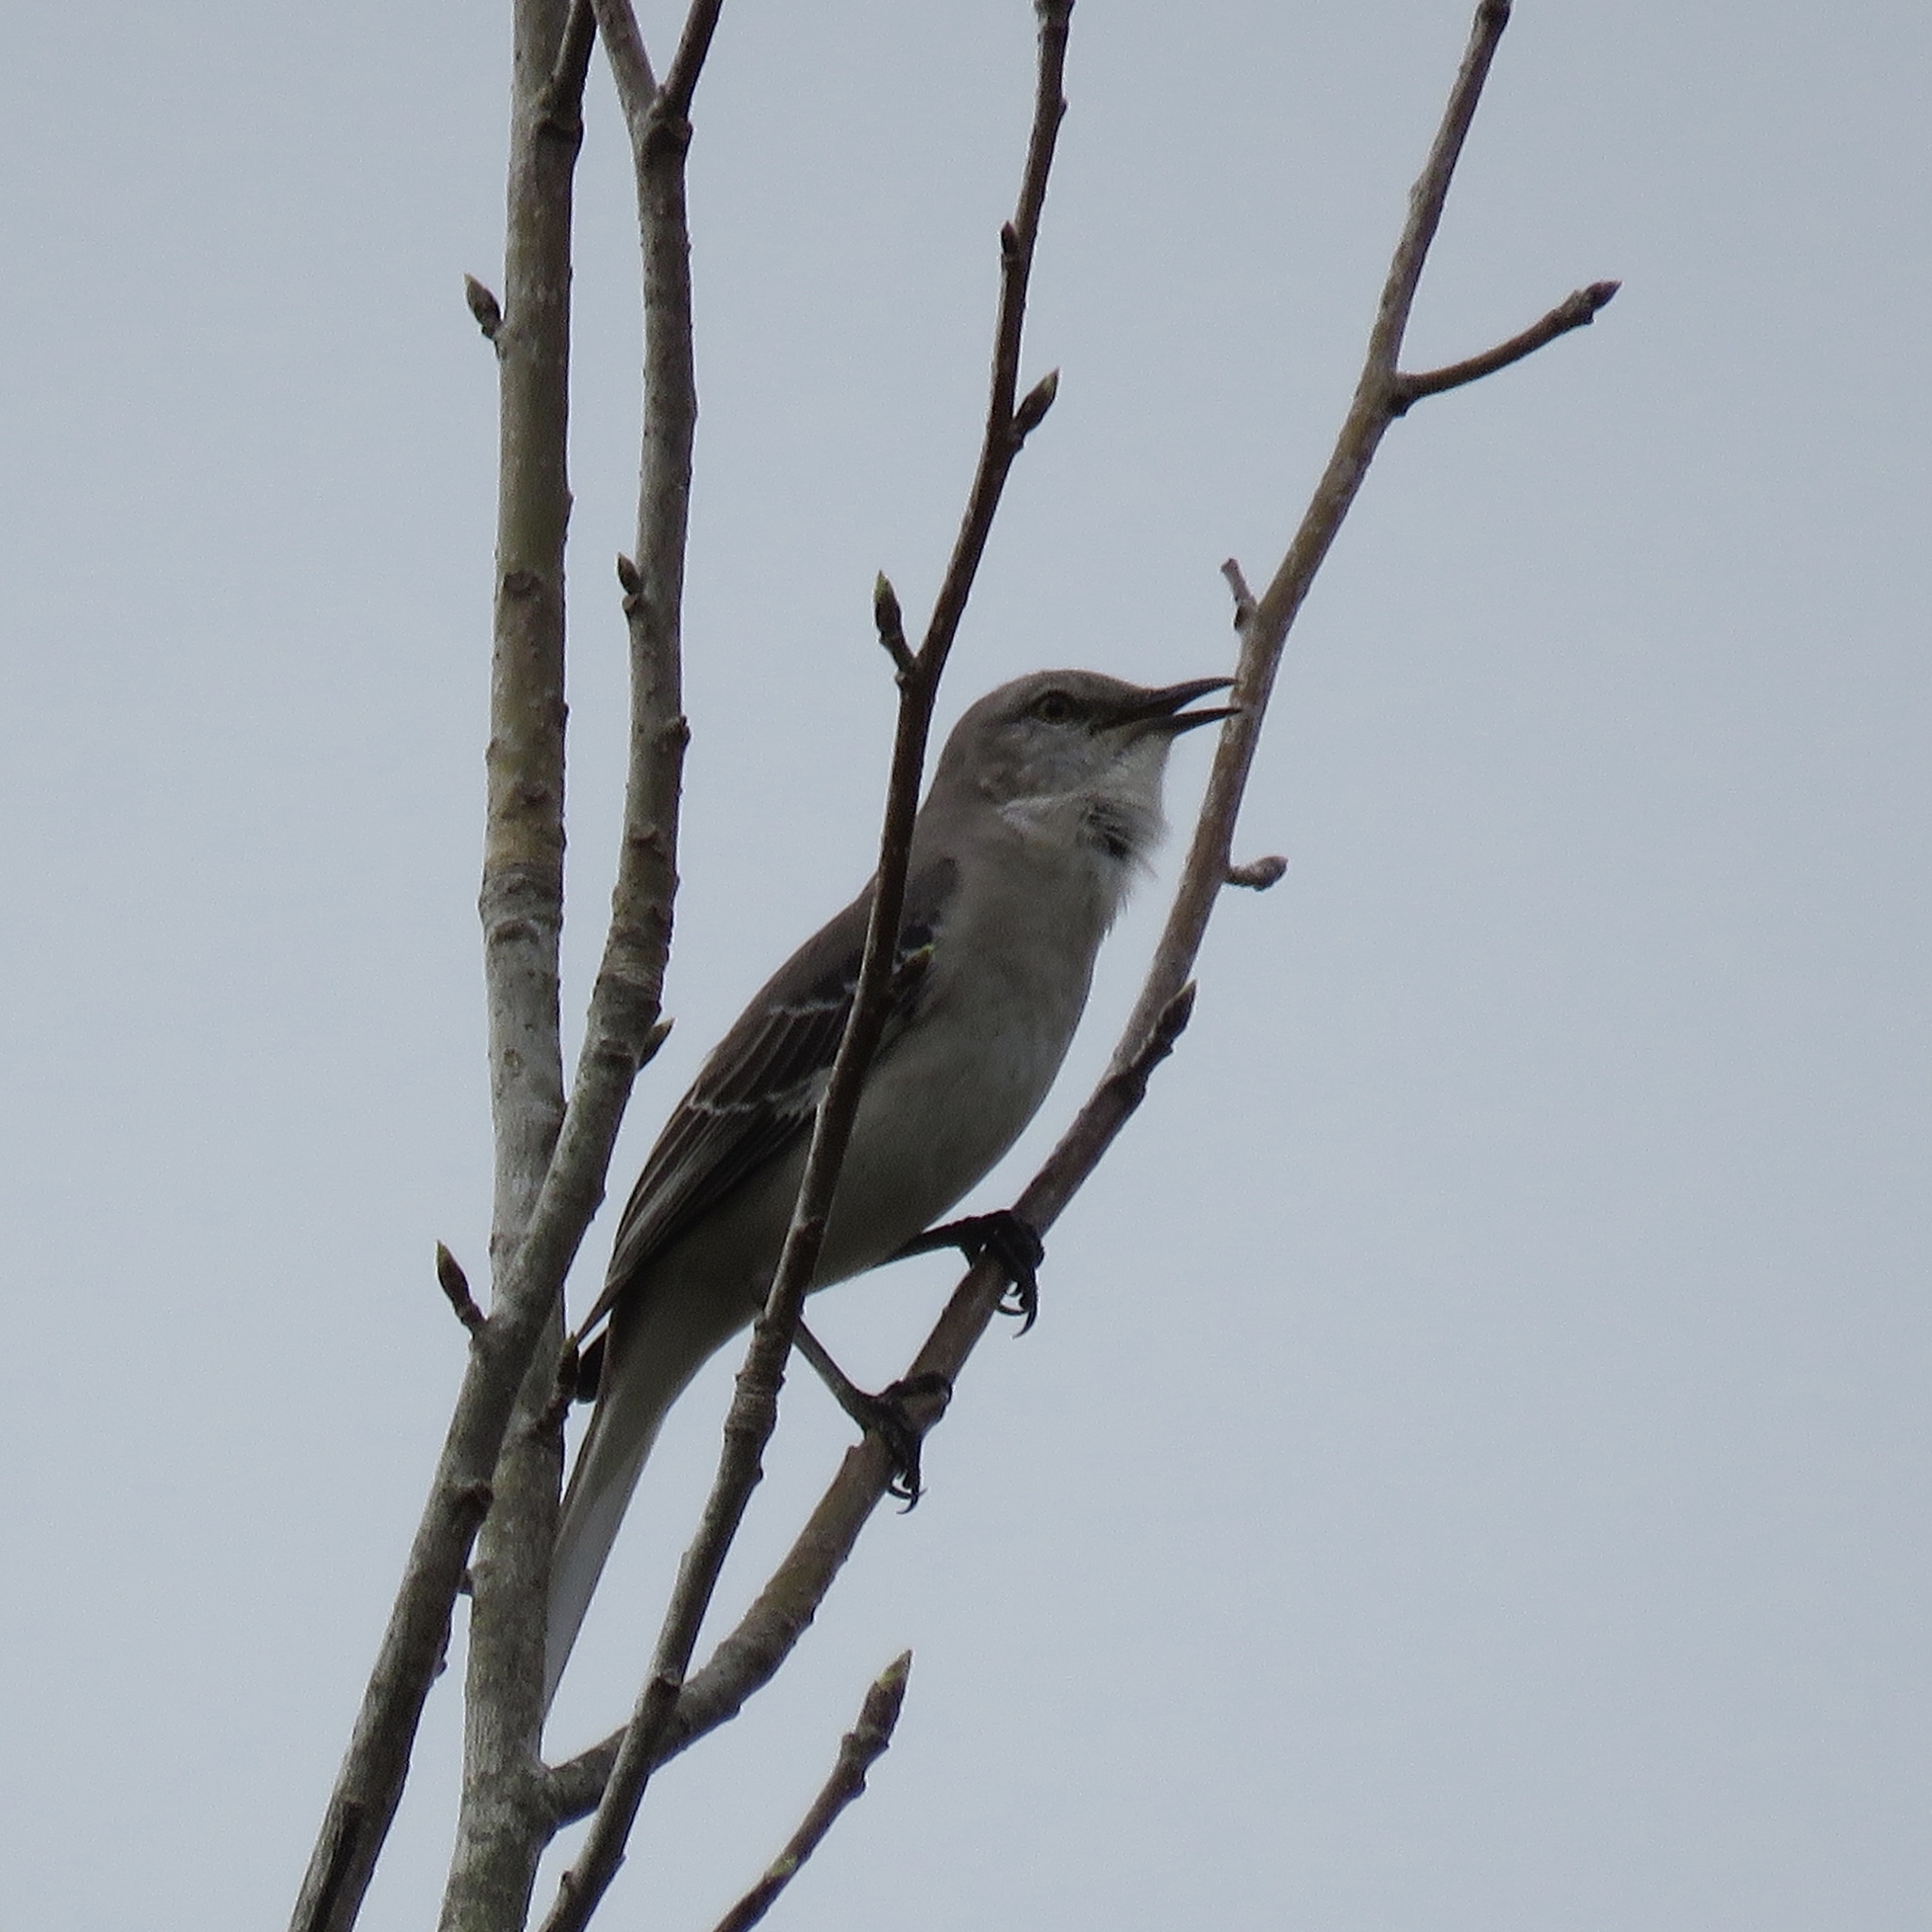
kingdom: Animalia
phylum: Chordata
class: Aves
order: Passeriformes
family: Mimidae
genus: Mimus
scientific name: Mimus polyglottos
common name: Northern mockingbird
